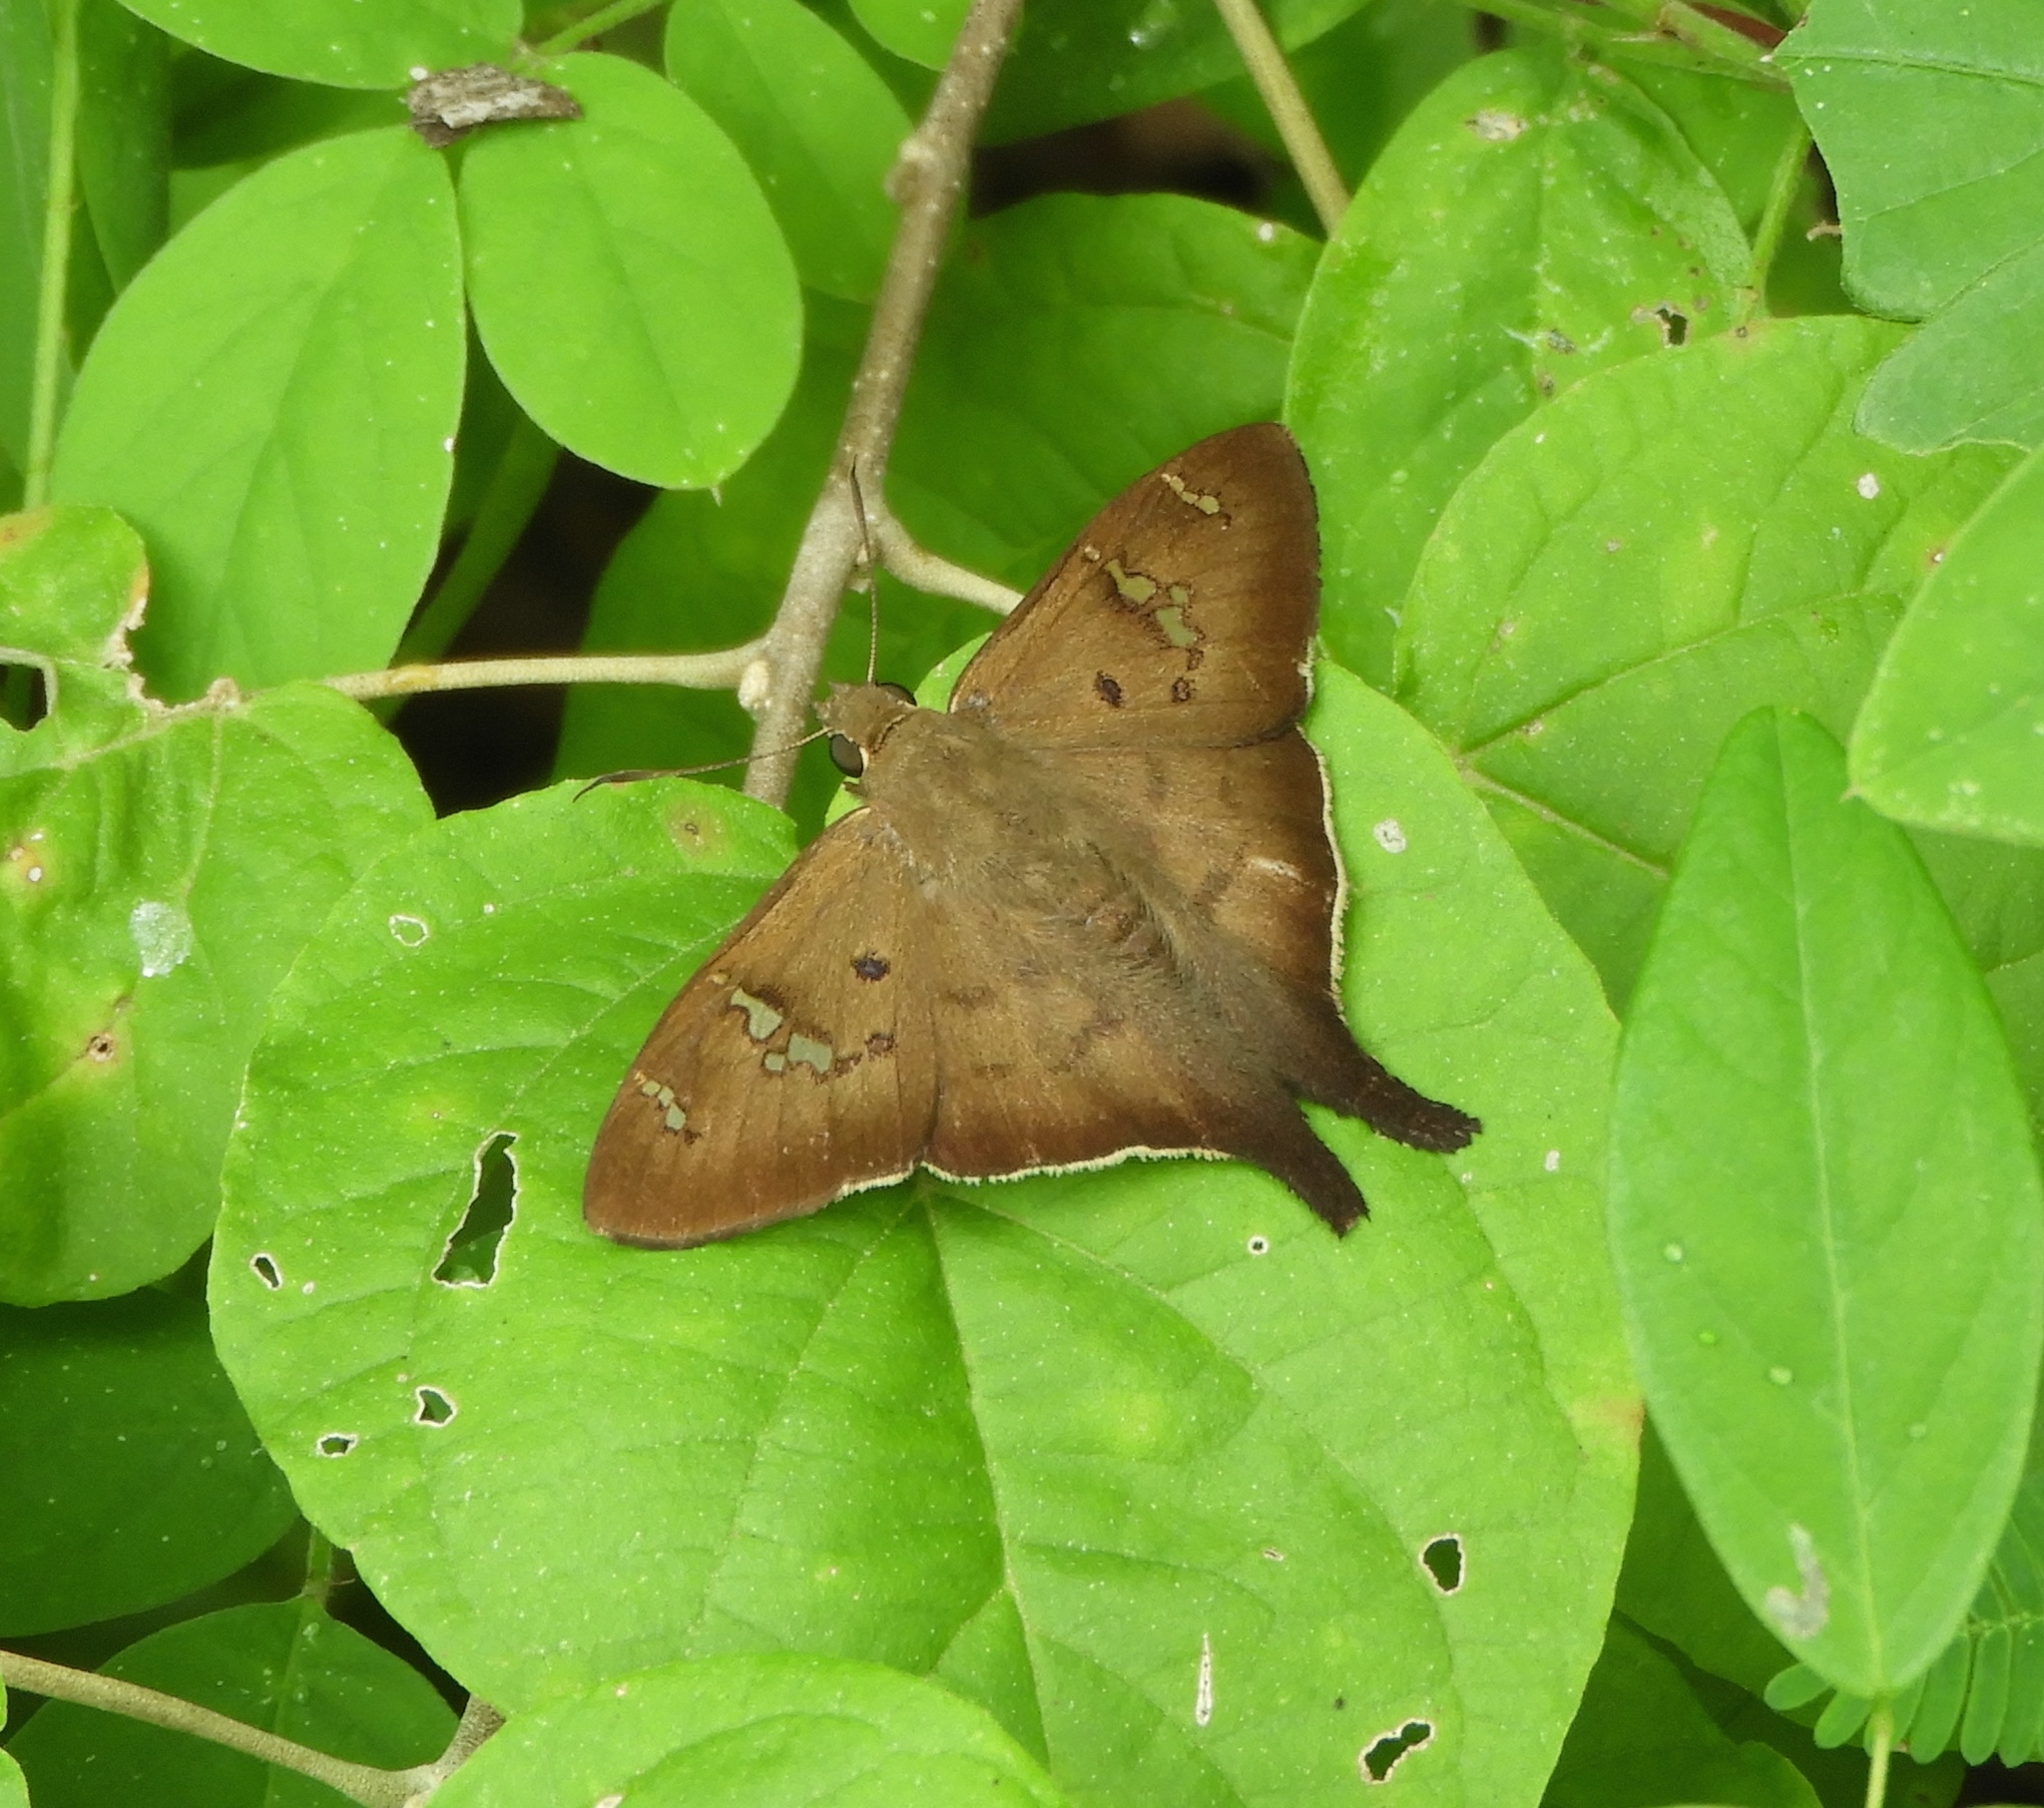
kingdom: Animalia
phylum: Arthropoda
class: Insecta
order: Lepidoptera
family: Hesperiidae
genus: Ectomis
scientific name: Ectomis
